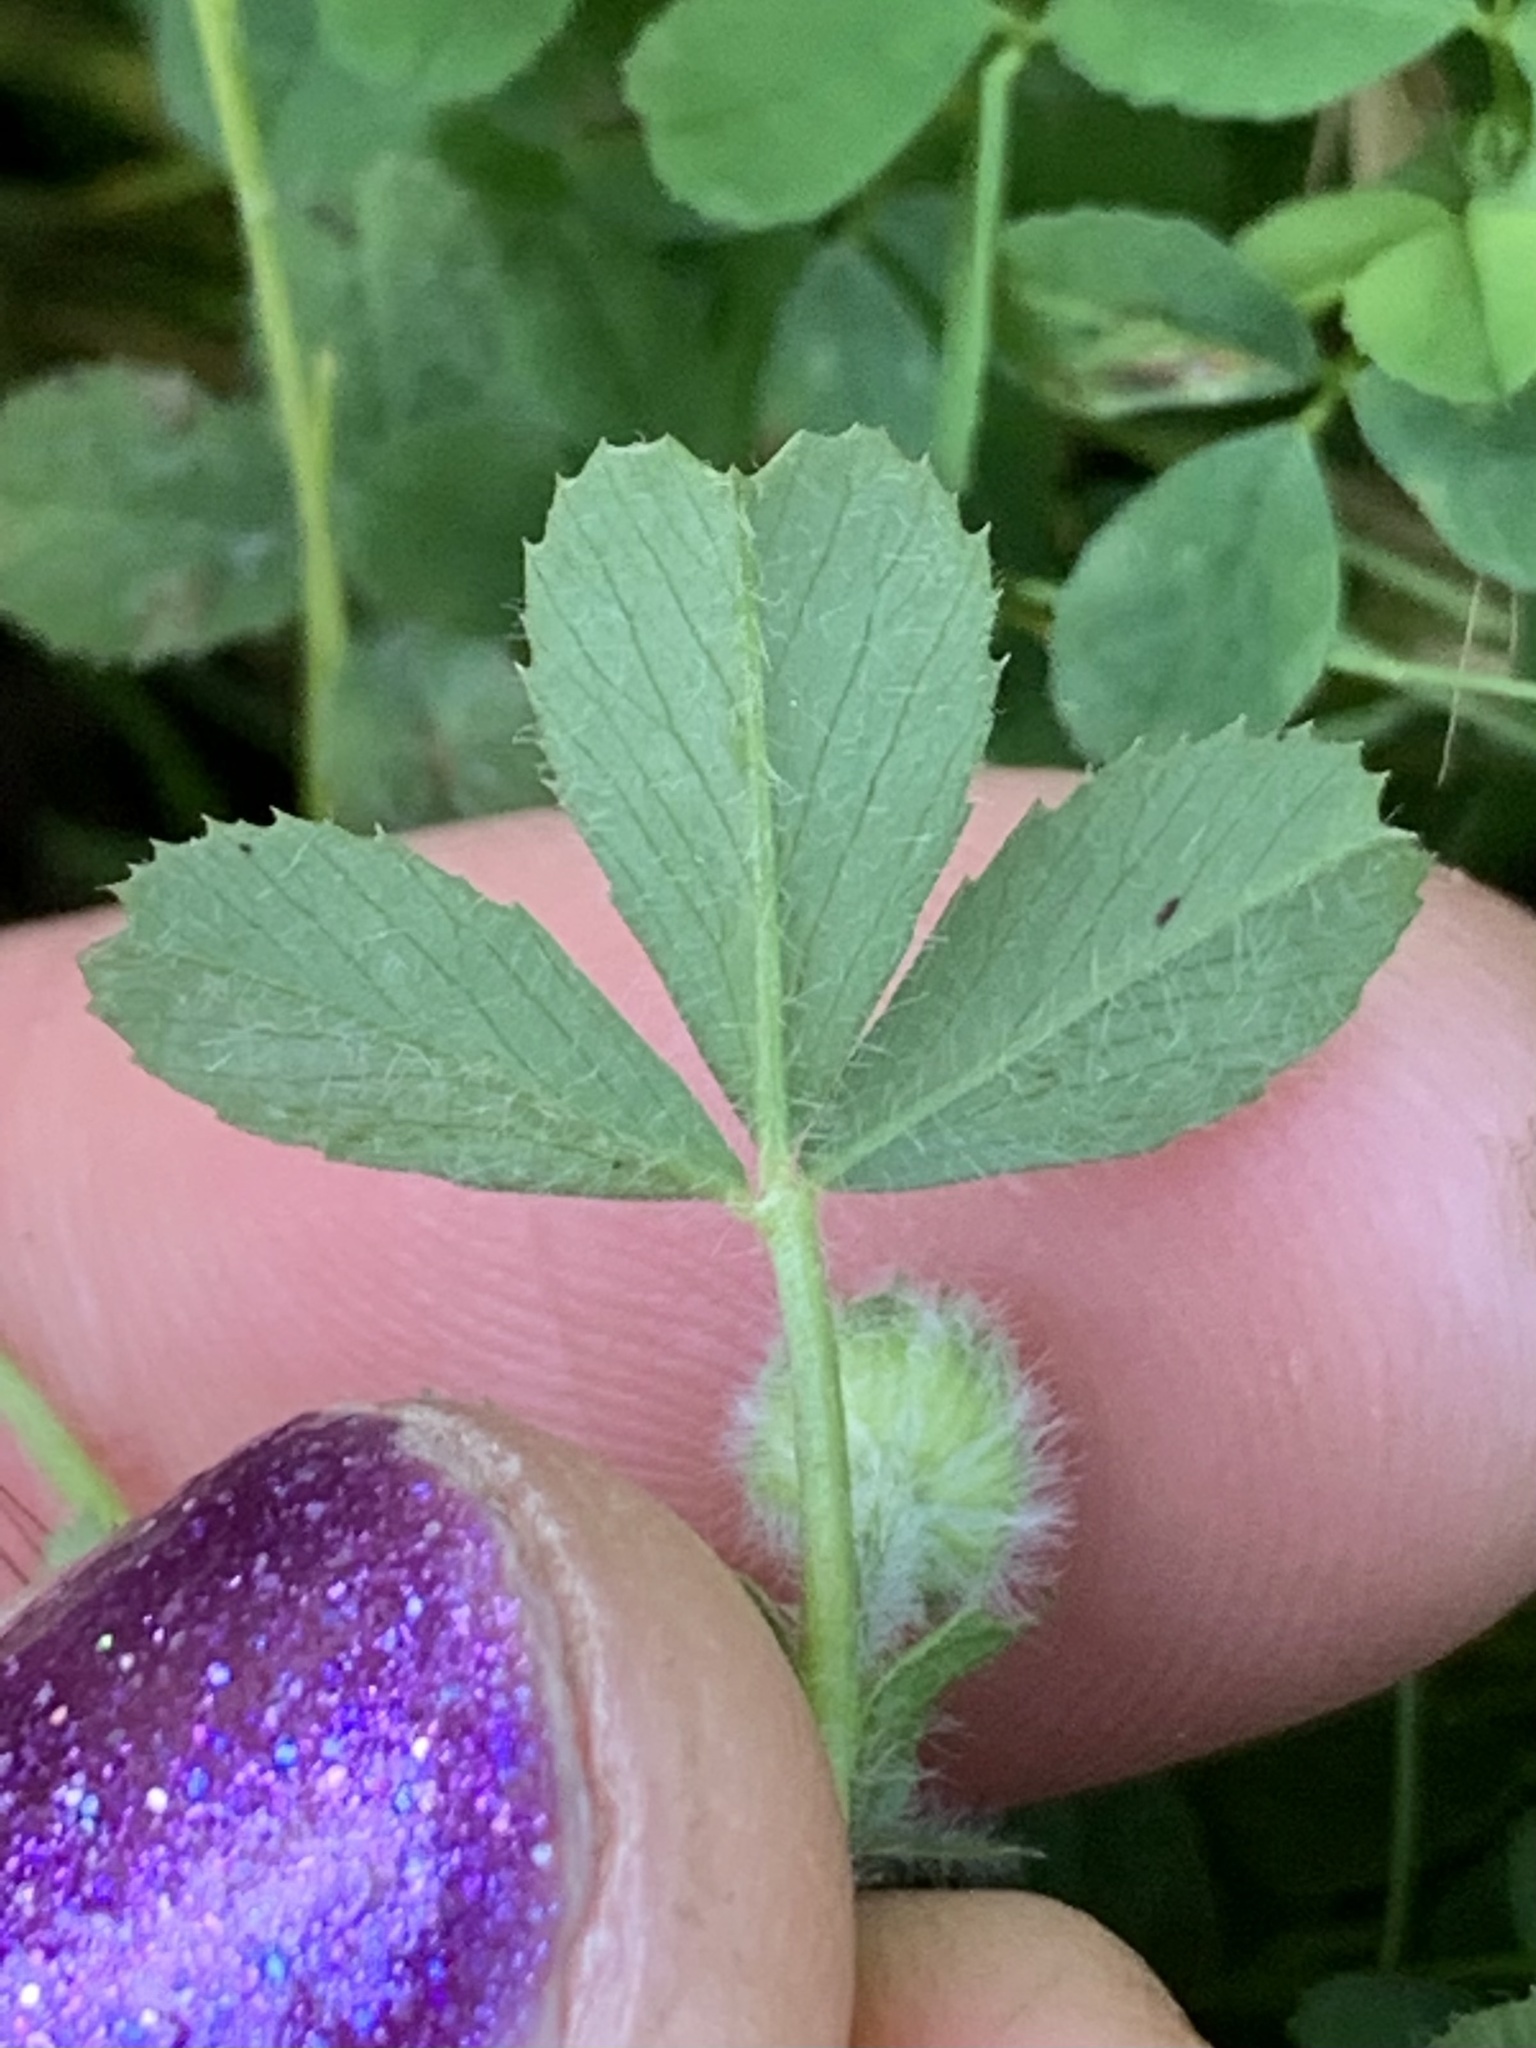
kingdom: Plantae
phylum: Tracheophyta
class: Magnoliopsida
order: Fabales
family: Fabaceae
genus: Trifolium
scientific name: Trifolium microcephalum
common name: Maiden clover
